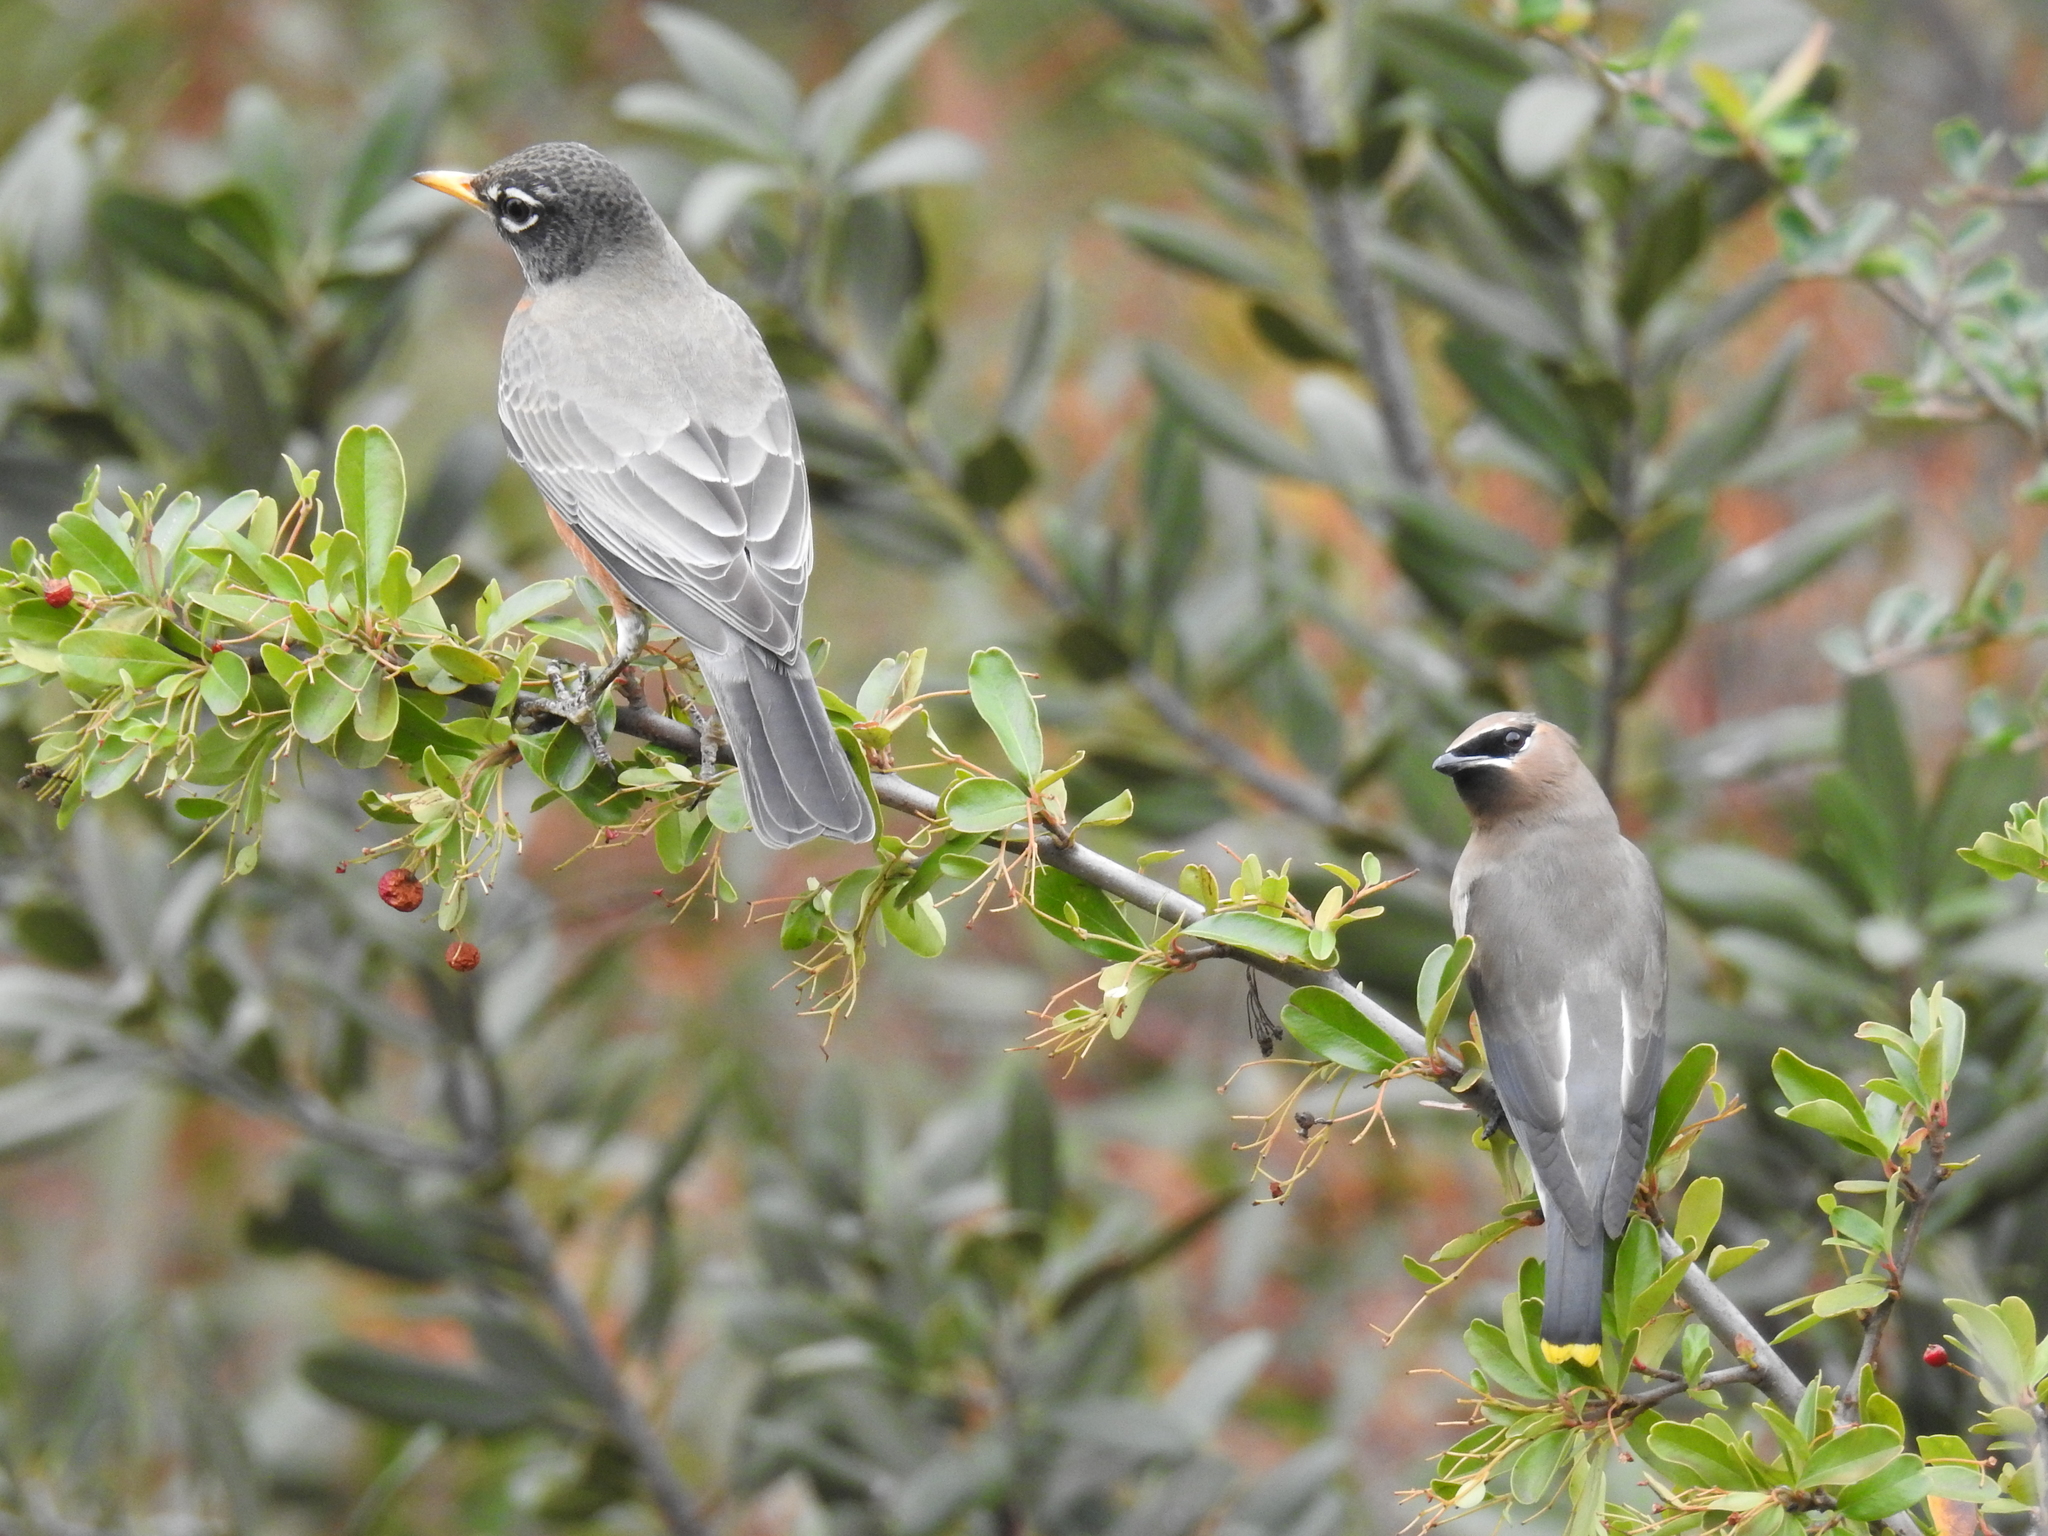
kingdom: Animalia
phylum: Chordata
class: Aves
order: Passeriformes
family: Turdidae
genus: Turdus
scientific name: Turdus migratorius
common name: American robin
